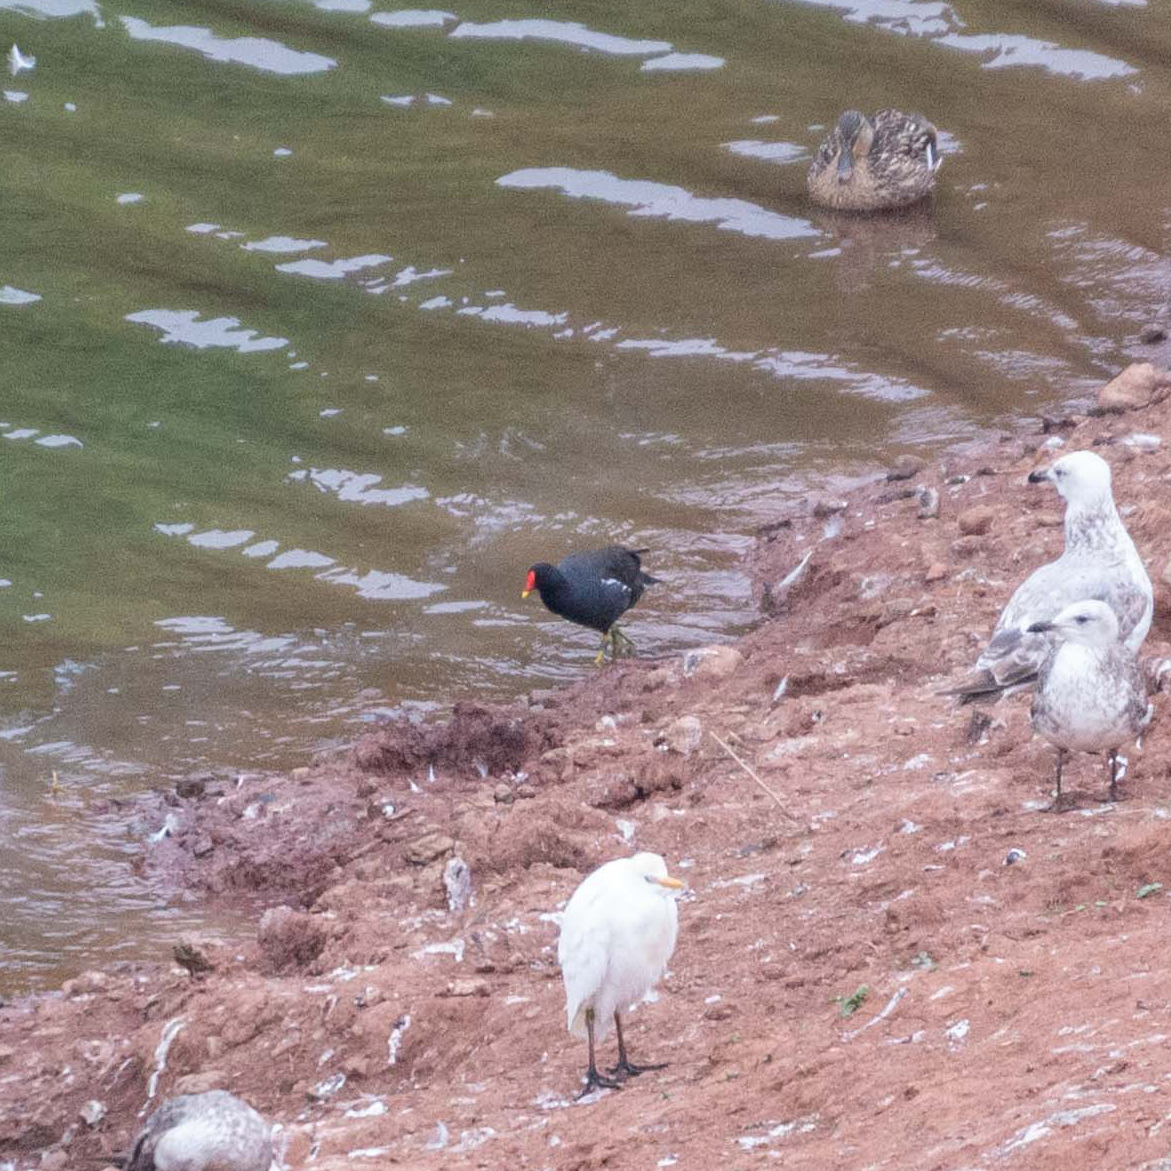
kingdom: Animalia
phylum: Chordata
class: Aves
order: Gruiformes
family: Rallidae
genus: Gallinula
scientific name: Gallinula chloropus
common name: Common moorhen
